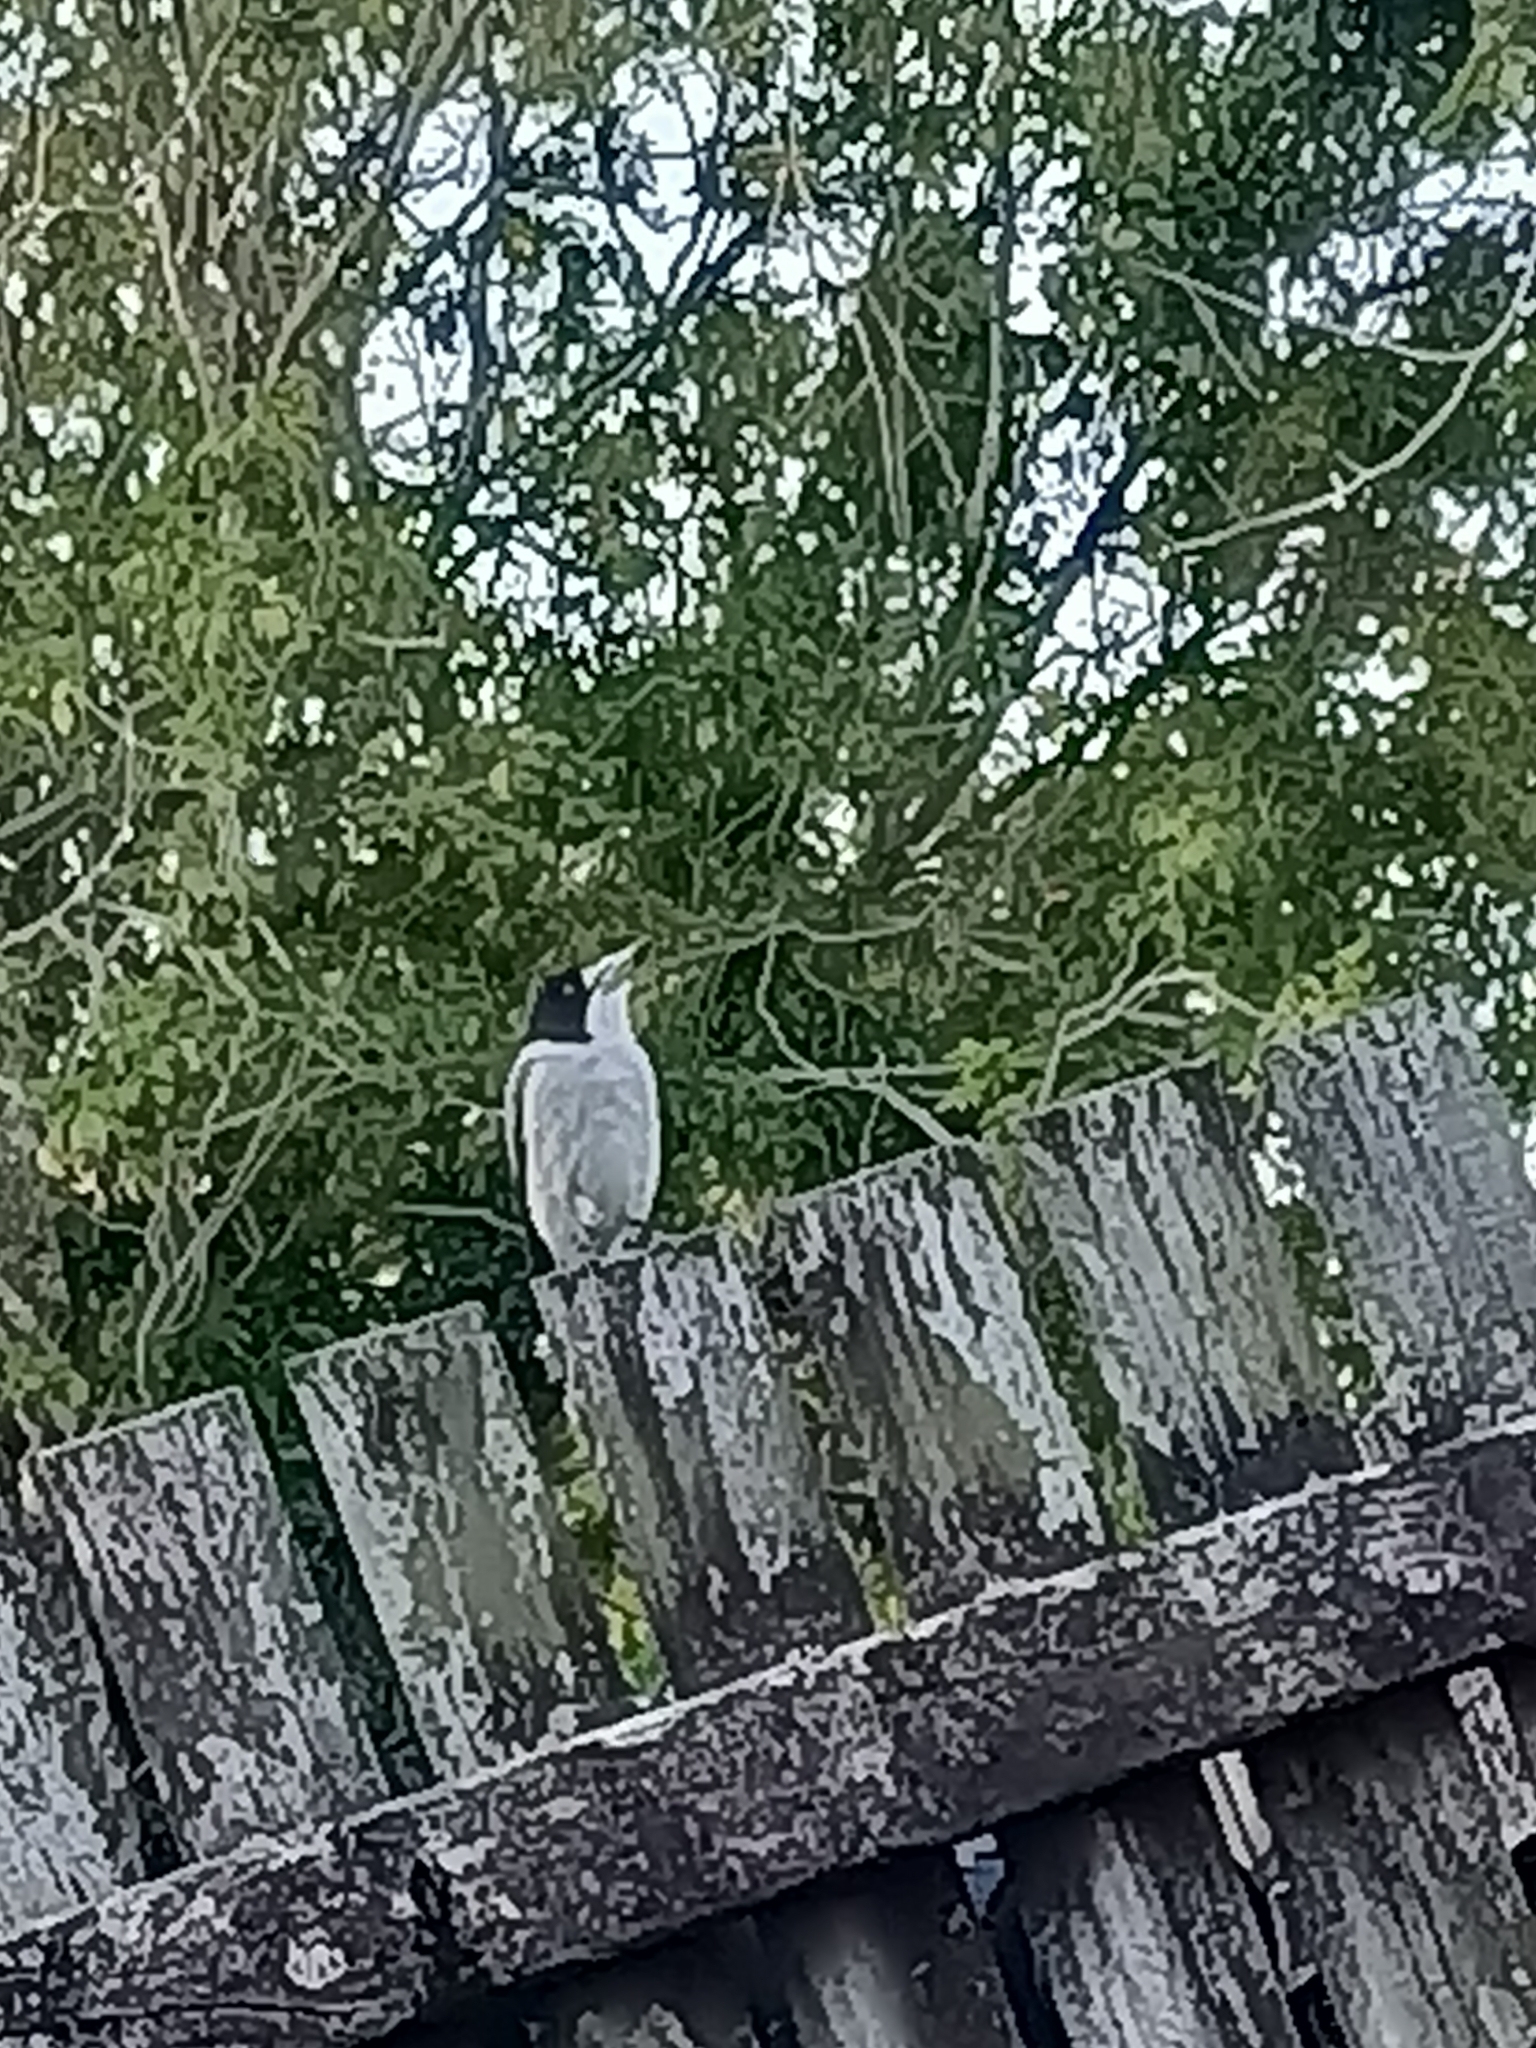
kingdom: Animalia
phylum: Chordata
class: Aves
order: Passeriformes
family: Cracticidae
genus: Cracticus
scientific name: Cracticus torquatus
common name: Grey butcherbird
